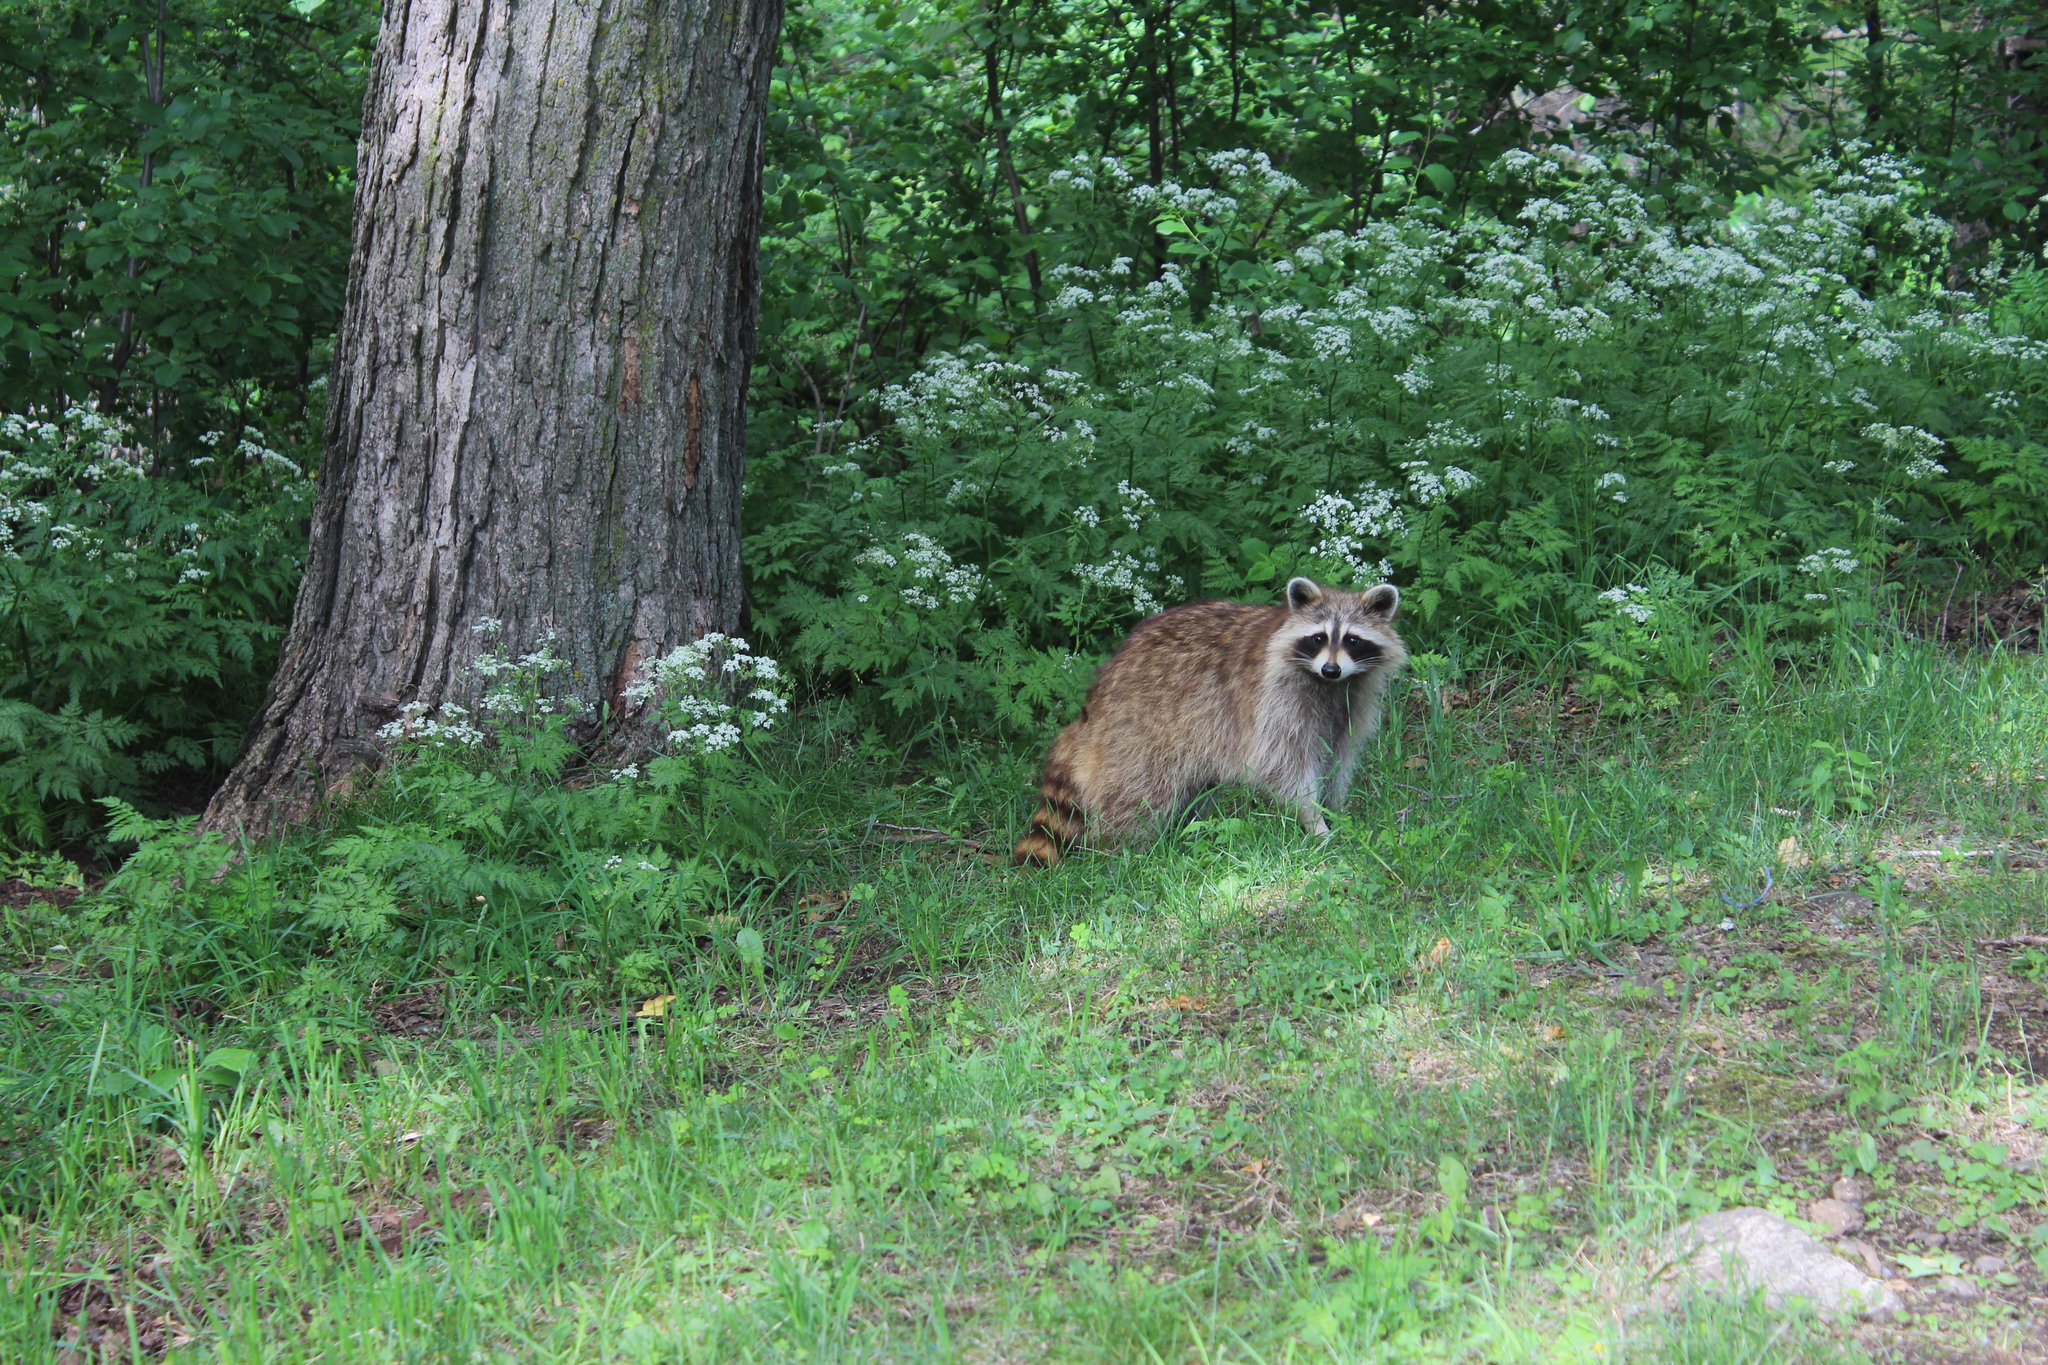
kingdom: Animalia
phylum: Chordata
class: Mammalia
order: Carnivora
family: Procyonidae
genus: Procyon
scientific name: Procyon lotor
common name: Raccoon
